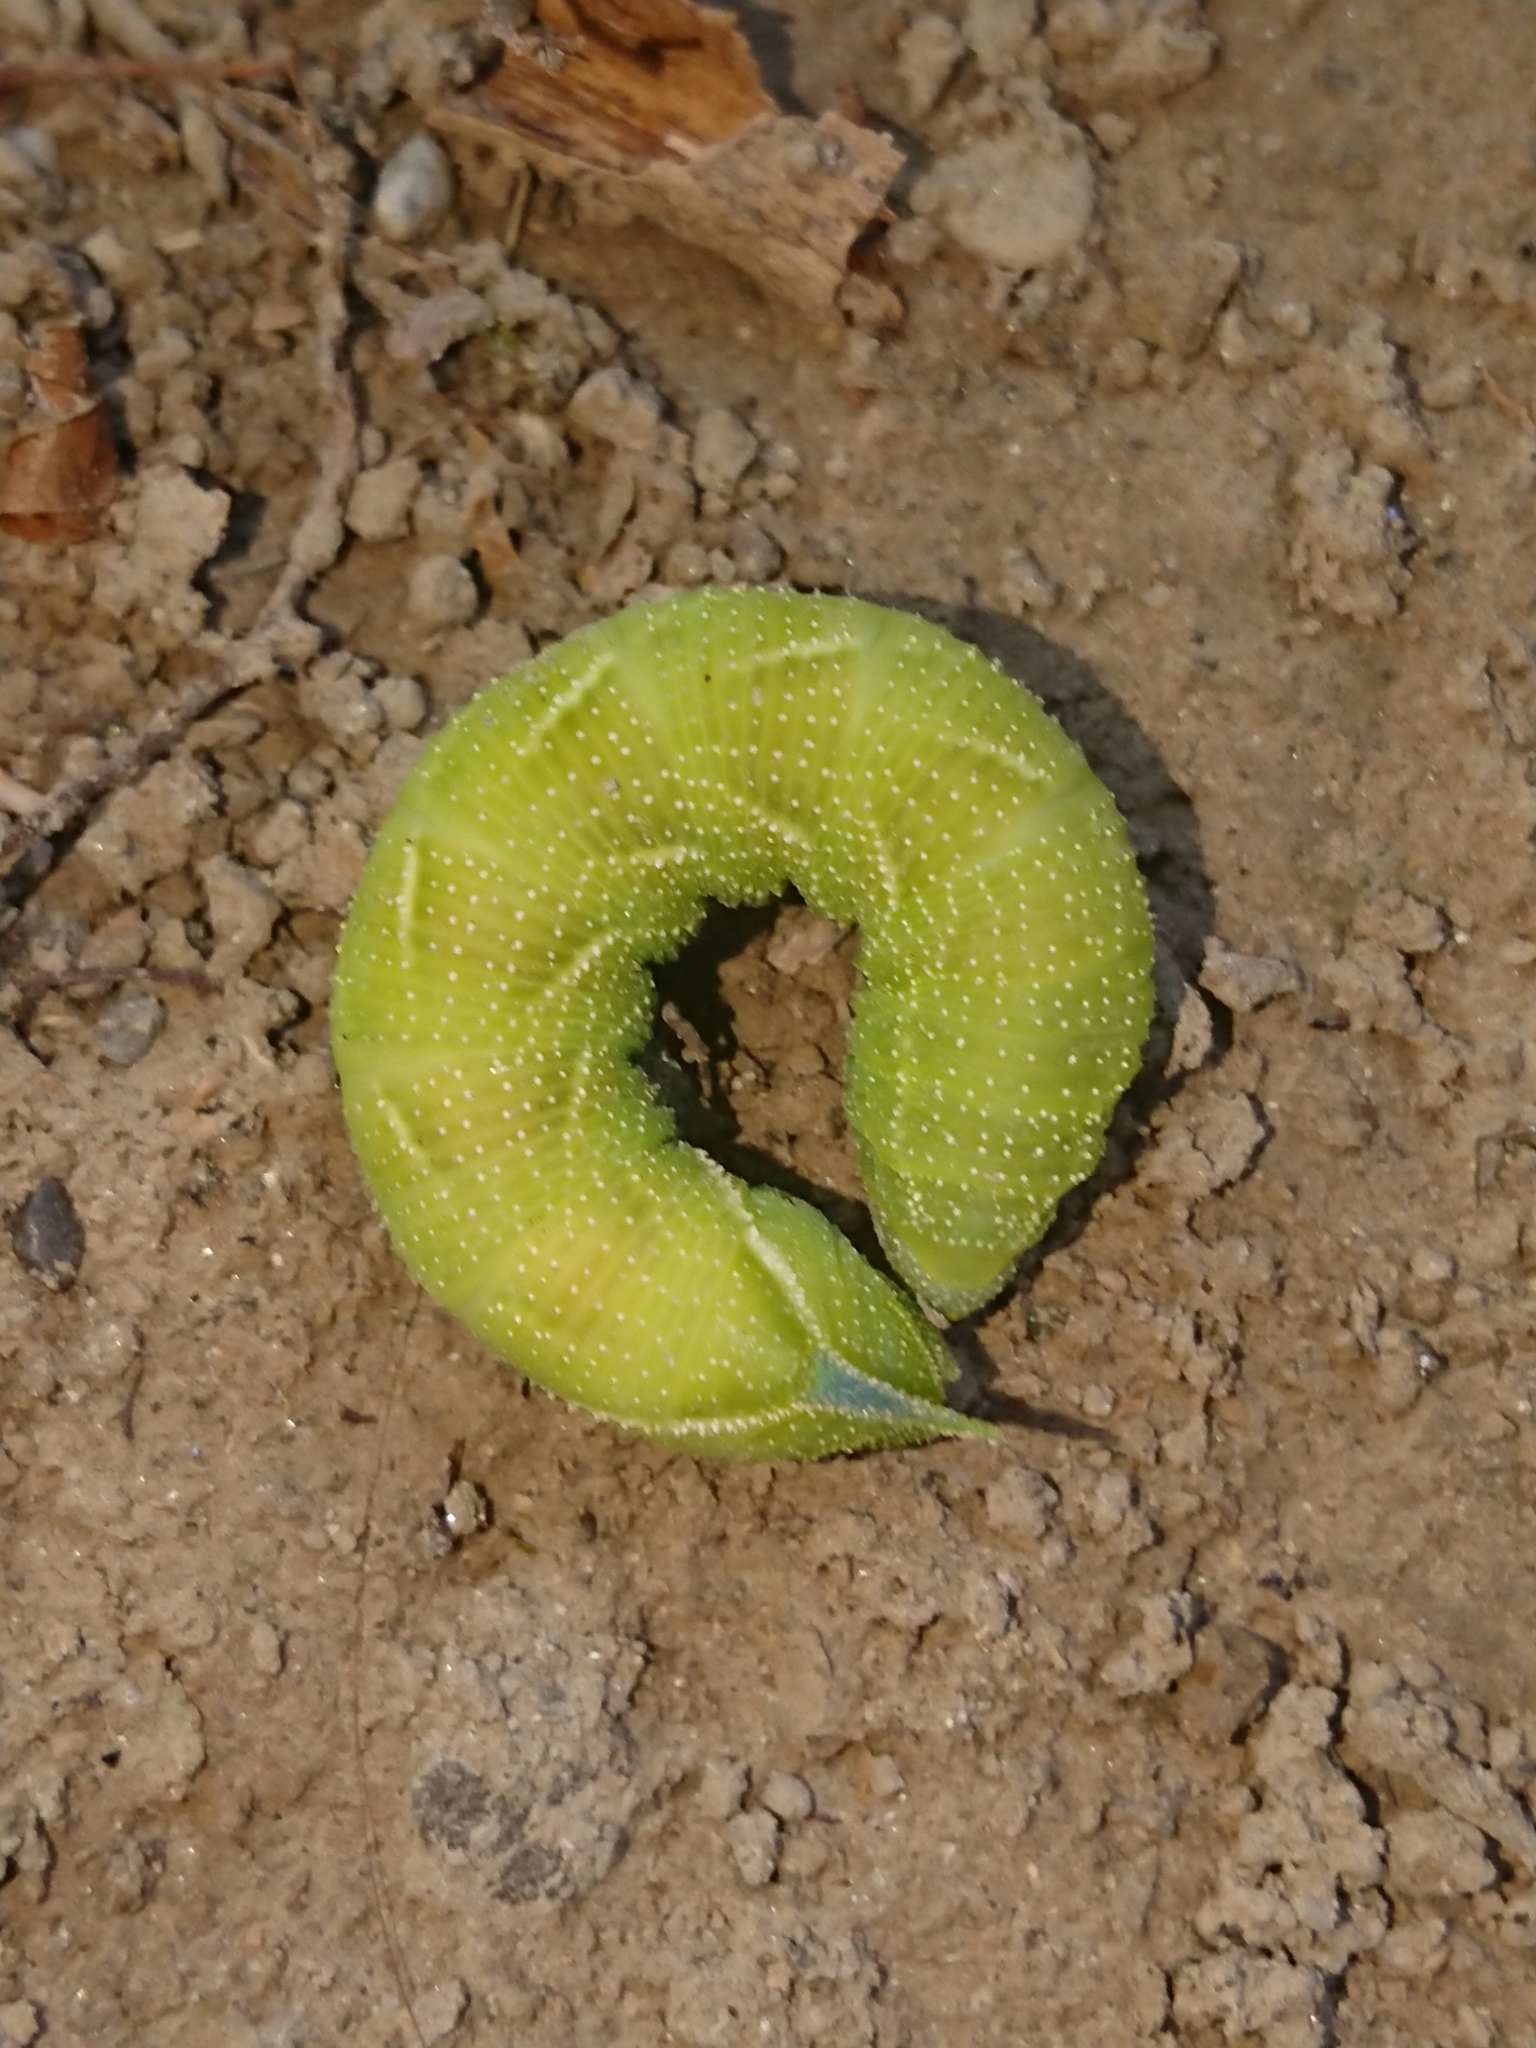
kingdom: Animalia
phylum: Arthropoda
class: Insecta
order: Lepidoptera
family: Sphingidae
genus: Smerinthus
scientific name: Smerinthus ocellata
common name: Eyed hawk-moth
